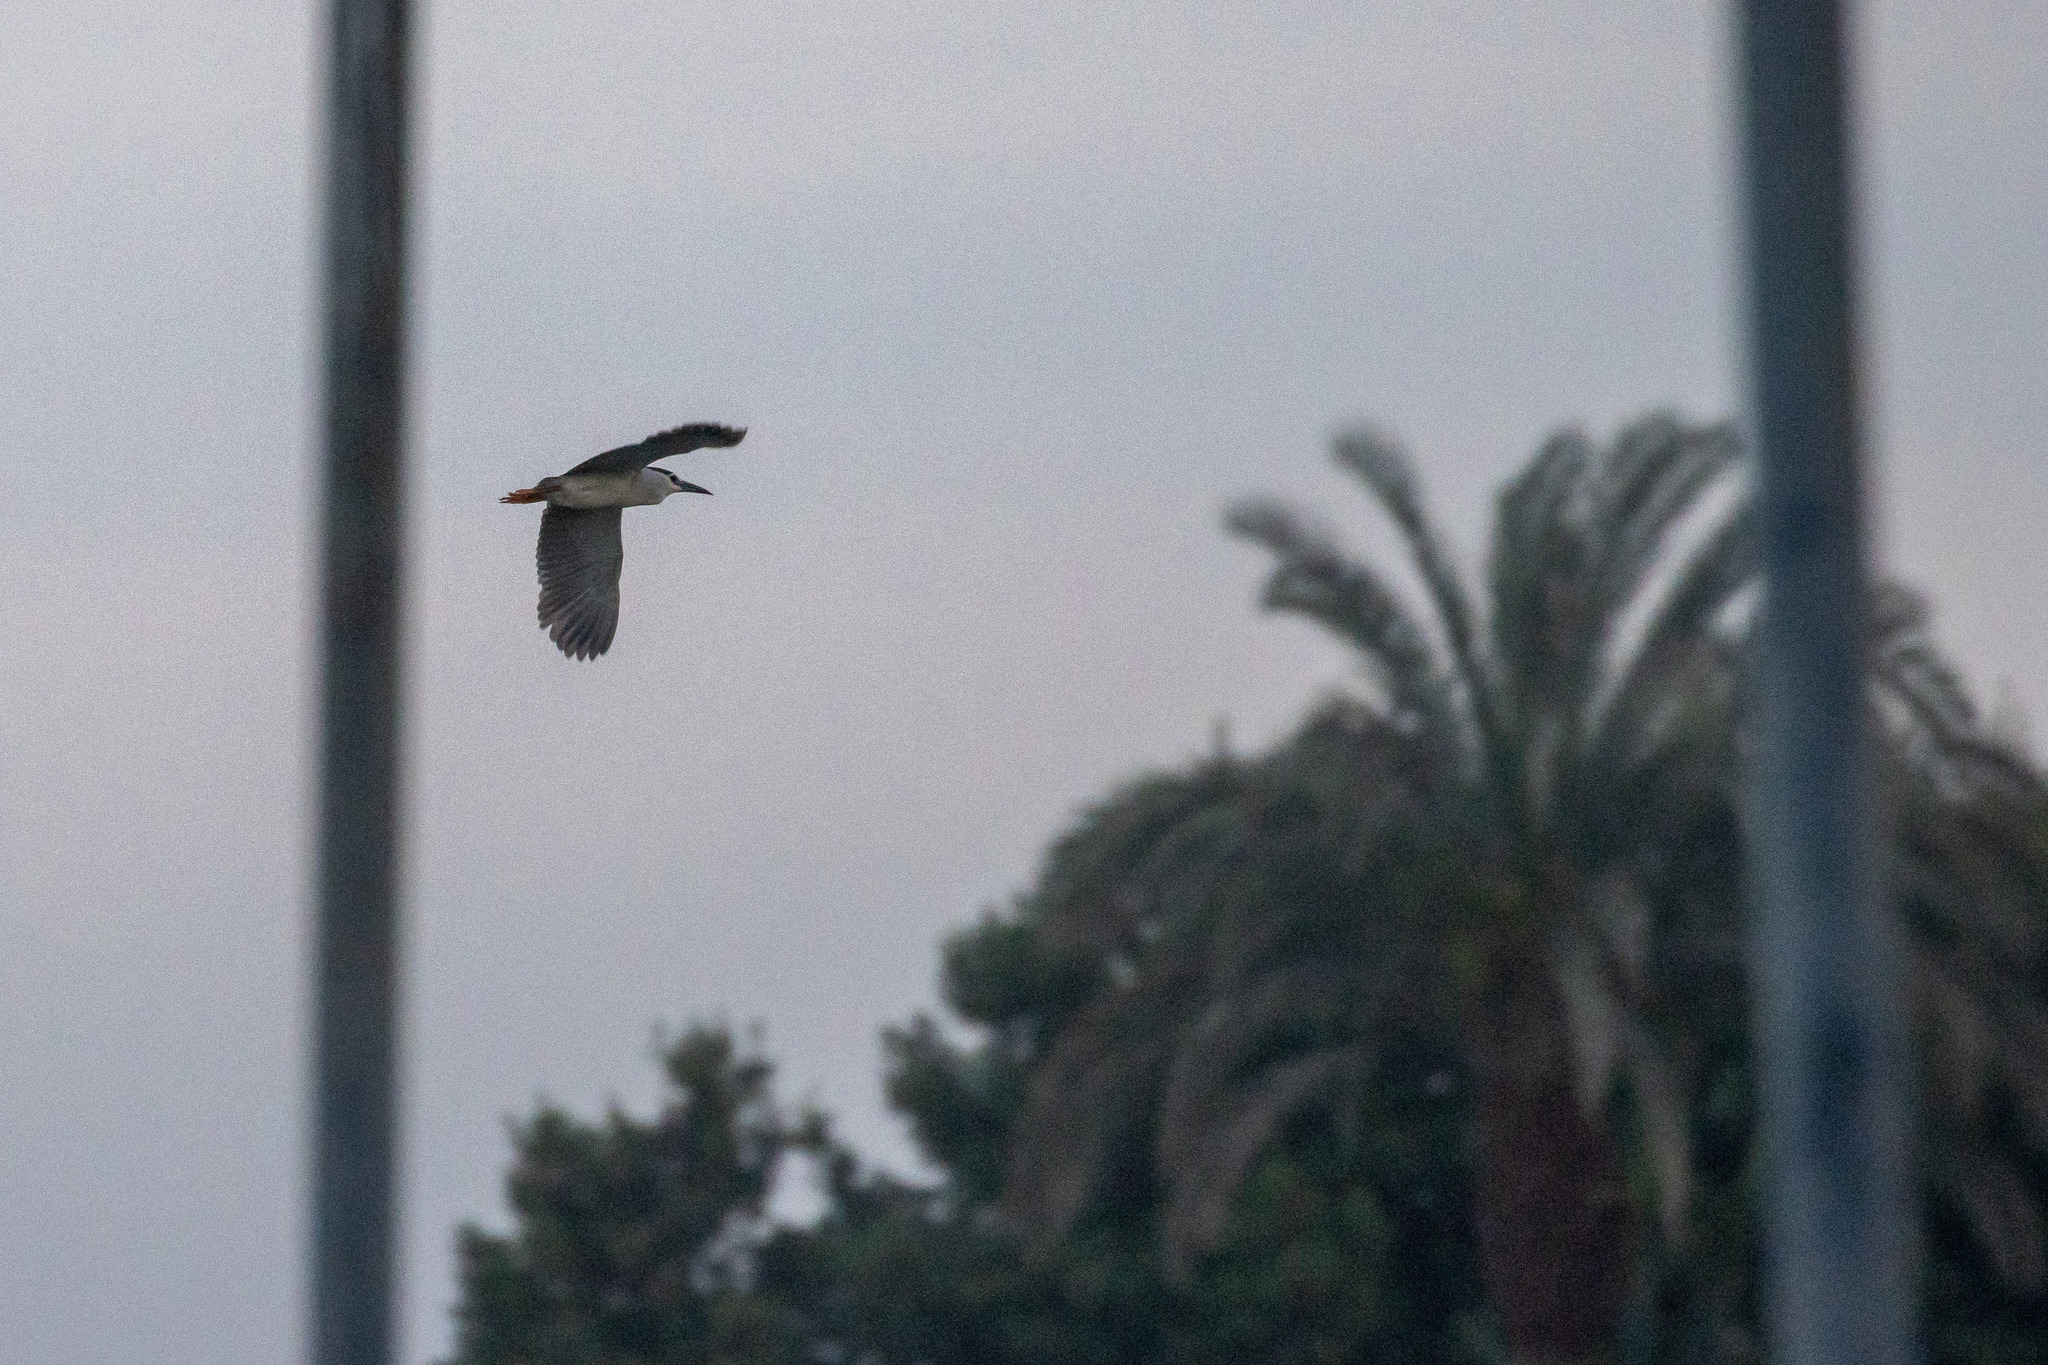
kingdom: Animalia
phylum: Chordata
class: Aves
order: Pelecaniformes
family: Ardeidae
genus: Nycticorax
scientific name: Nycticorax nycticorax
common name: Black-crowned night heron
